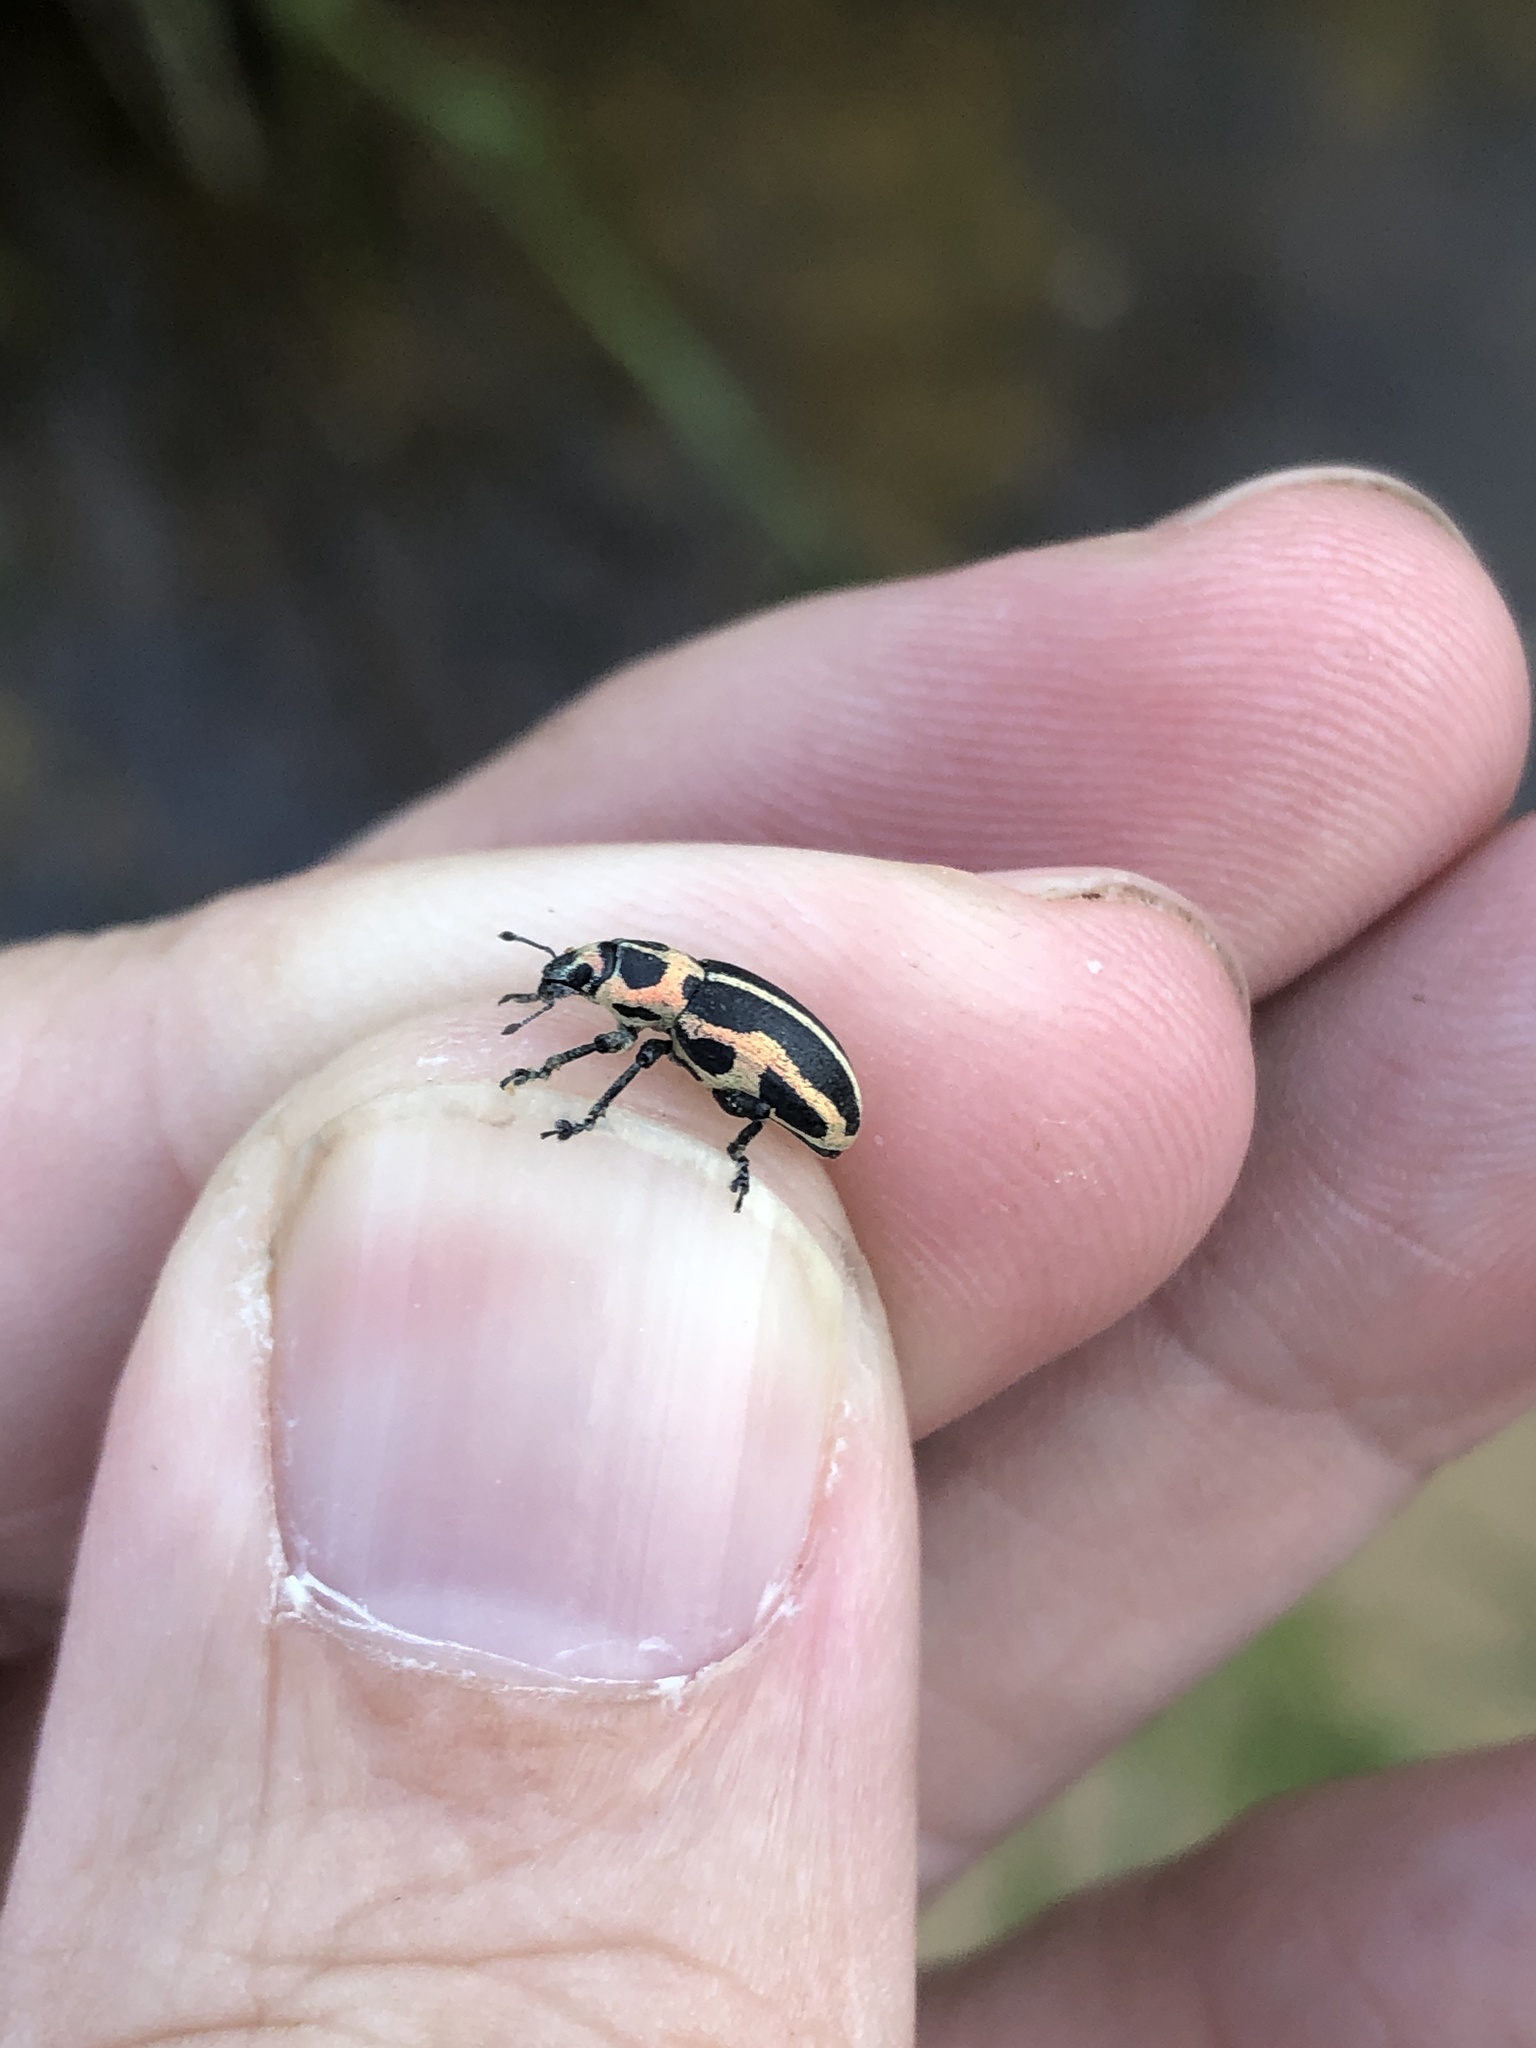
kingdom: Animalia
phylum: Arthropoda
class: Insecta
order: Coleoptera
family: Curculionidae
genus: Eudiagogus
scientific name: Eudiagogus pulcher
